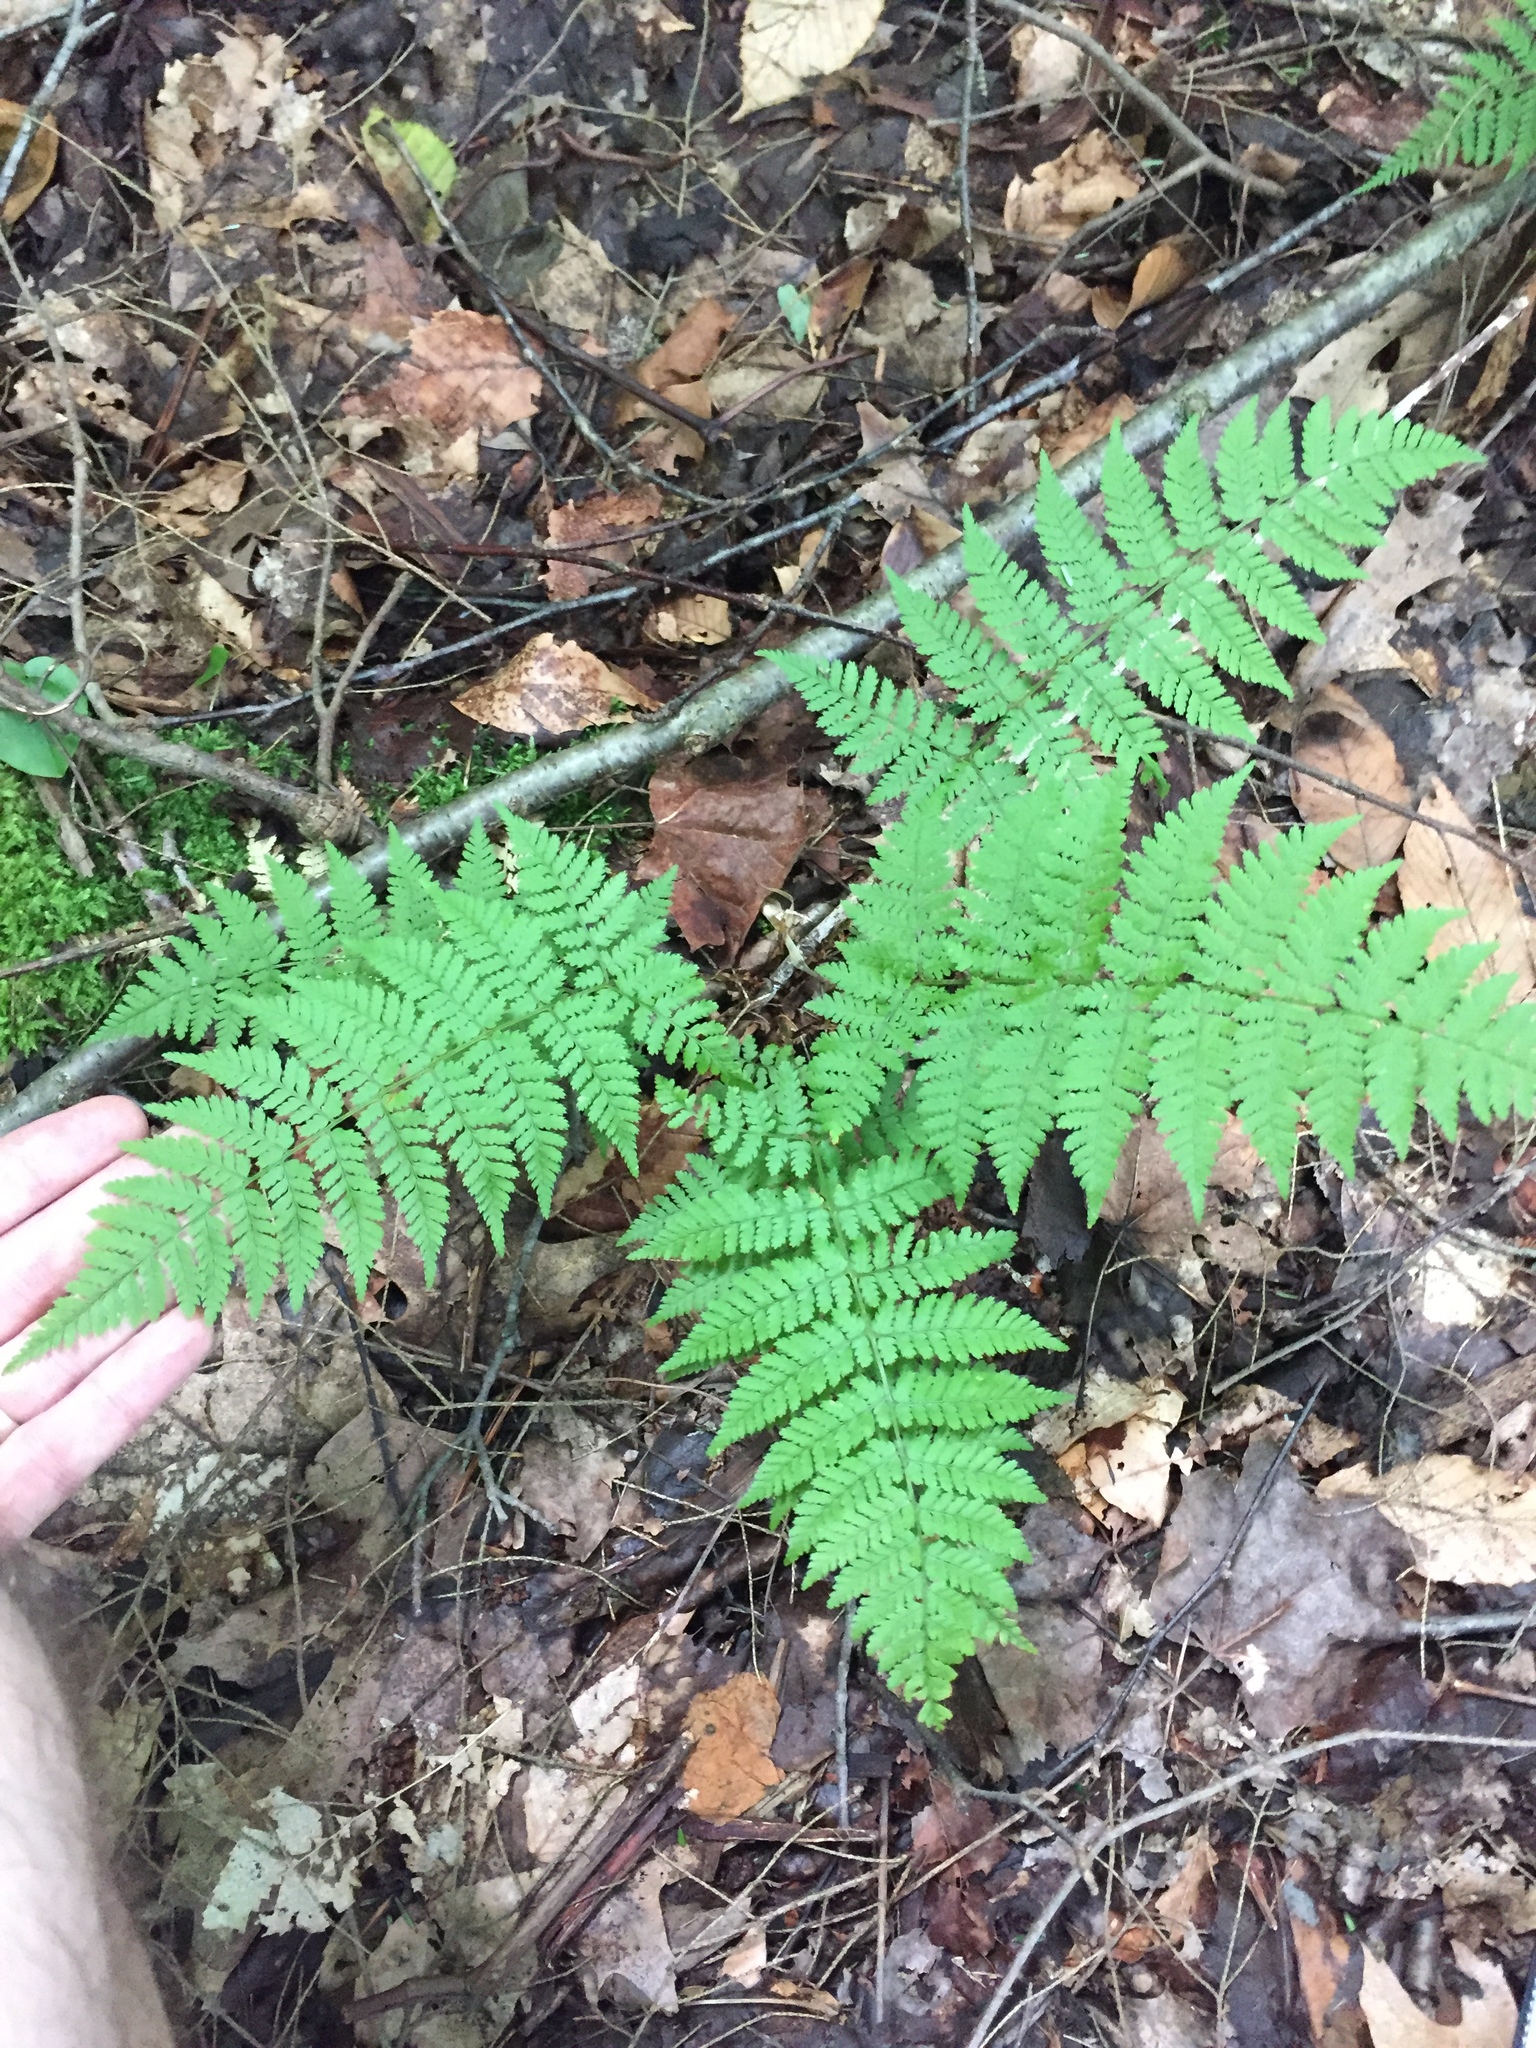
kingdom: Plantae
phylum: Tracheophyta
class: Polypodiopsida
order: Polypodiales
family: Dryopteridaceae
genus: Dryopteris
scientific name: Dryopteris intermedia
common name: Evergreen wood fern
